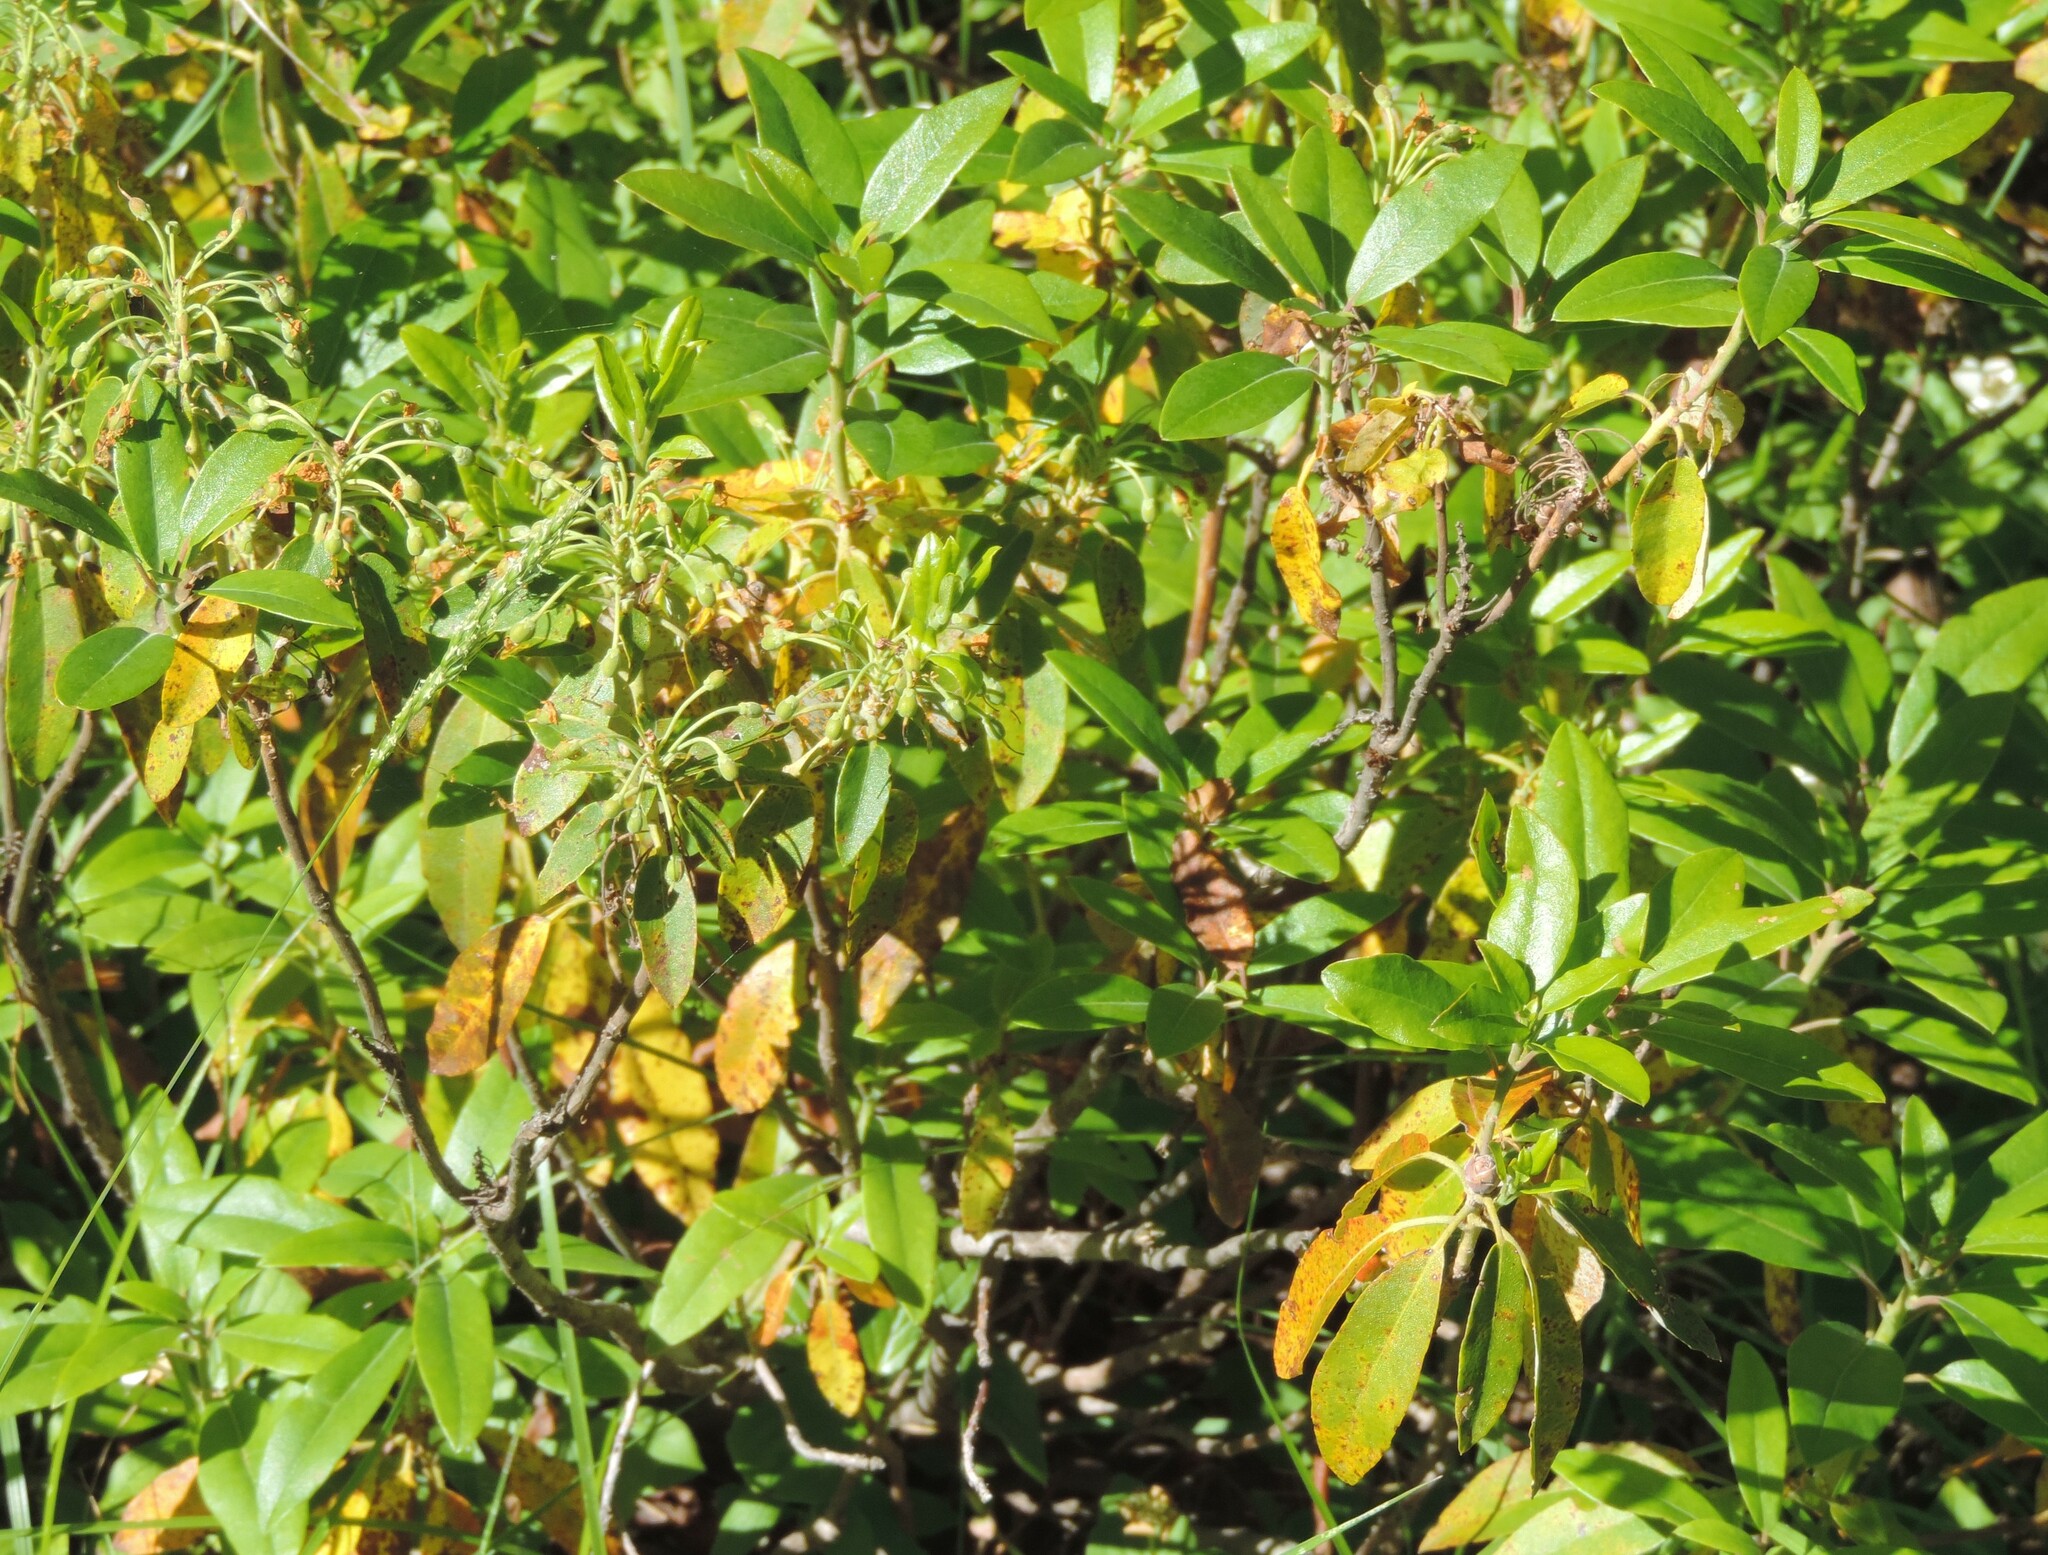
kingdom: Plantae
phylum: Tracheophyta
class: Magnoliopsida
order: Ericales
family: Ericaceae
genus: Rhododendron
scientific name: Rhododendron columbianum
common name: Western labrador tea
